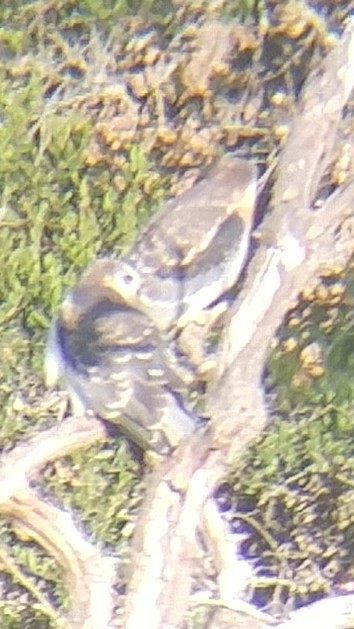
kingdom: Animalia
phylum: Chordata
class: Aves
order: Accipitriformes
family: Accipitridae
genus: Elanus
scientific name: Elanus leucurus
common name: White-tailed kite
